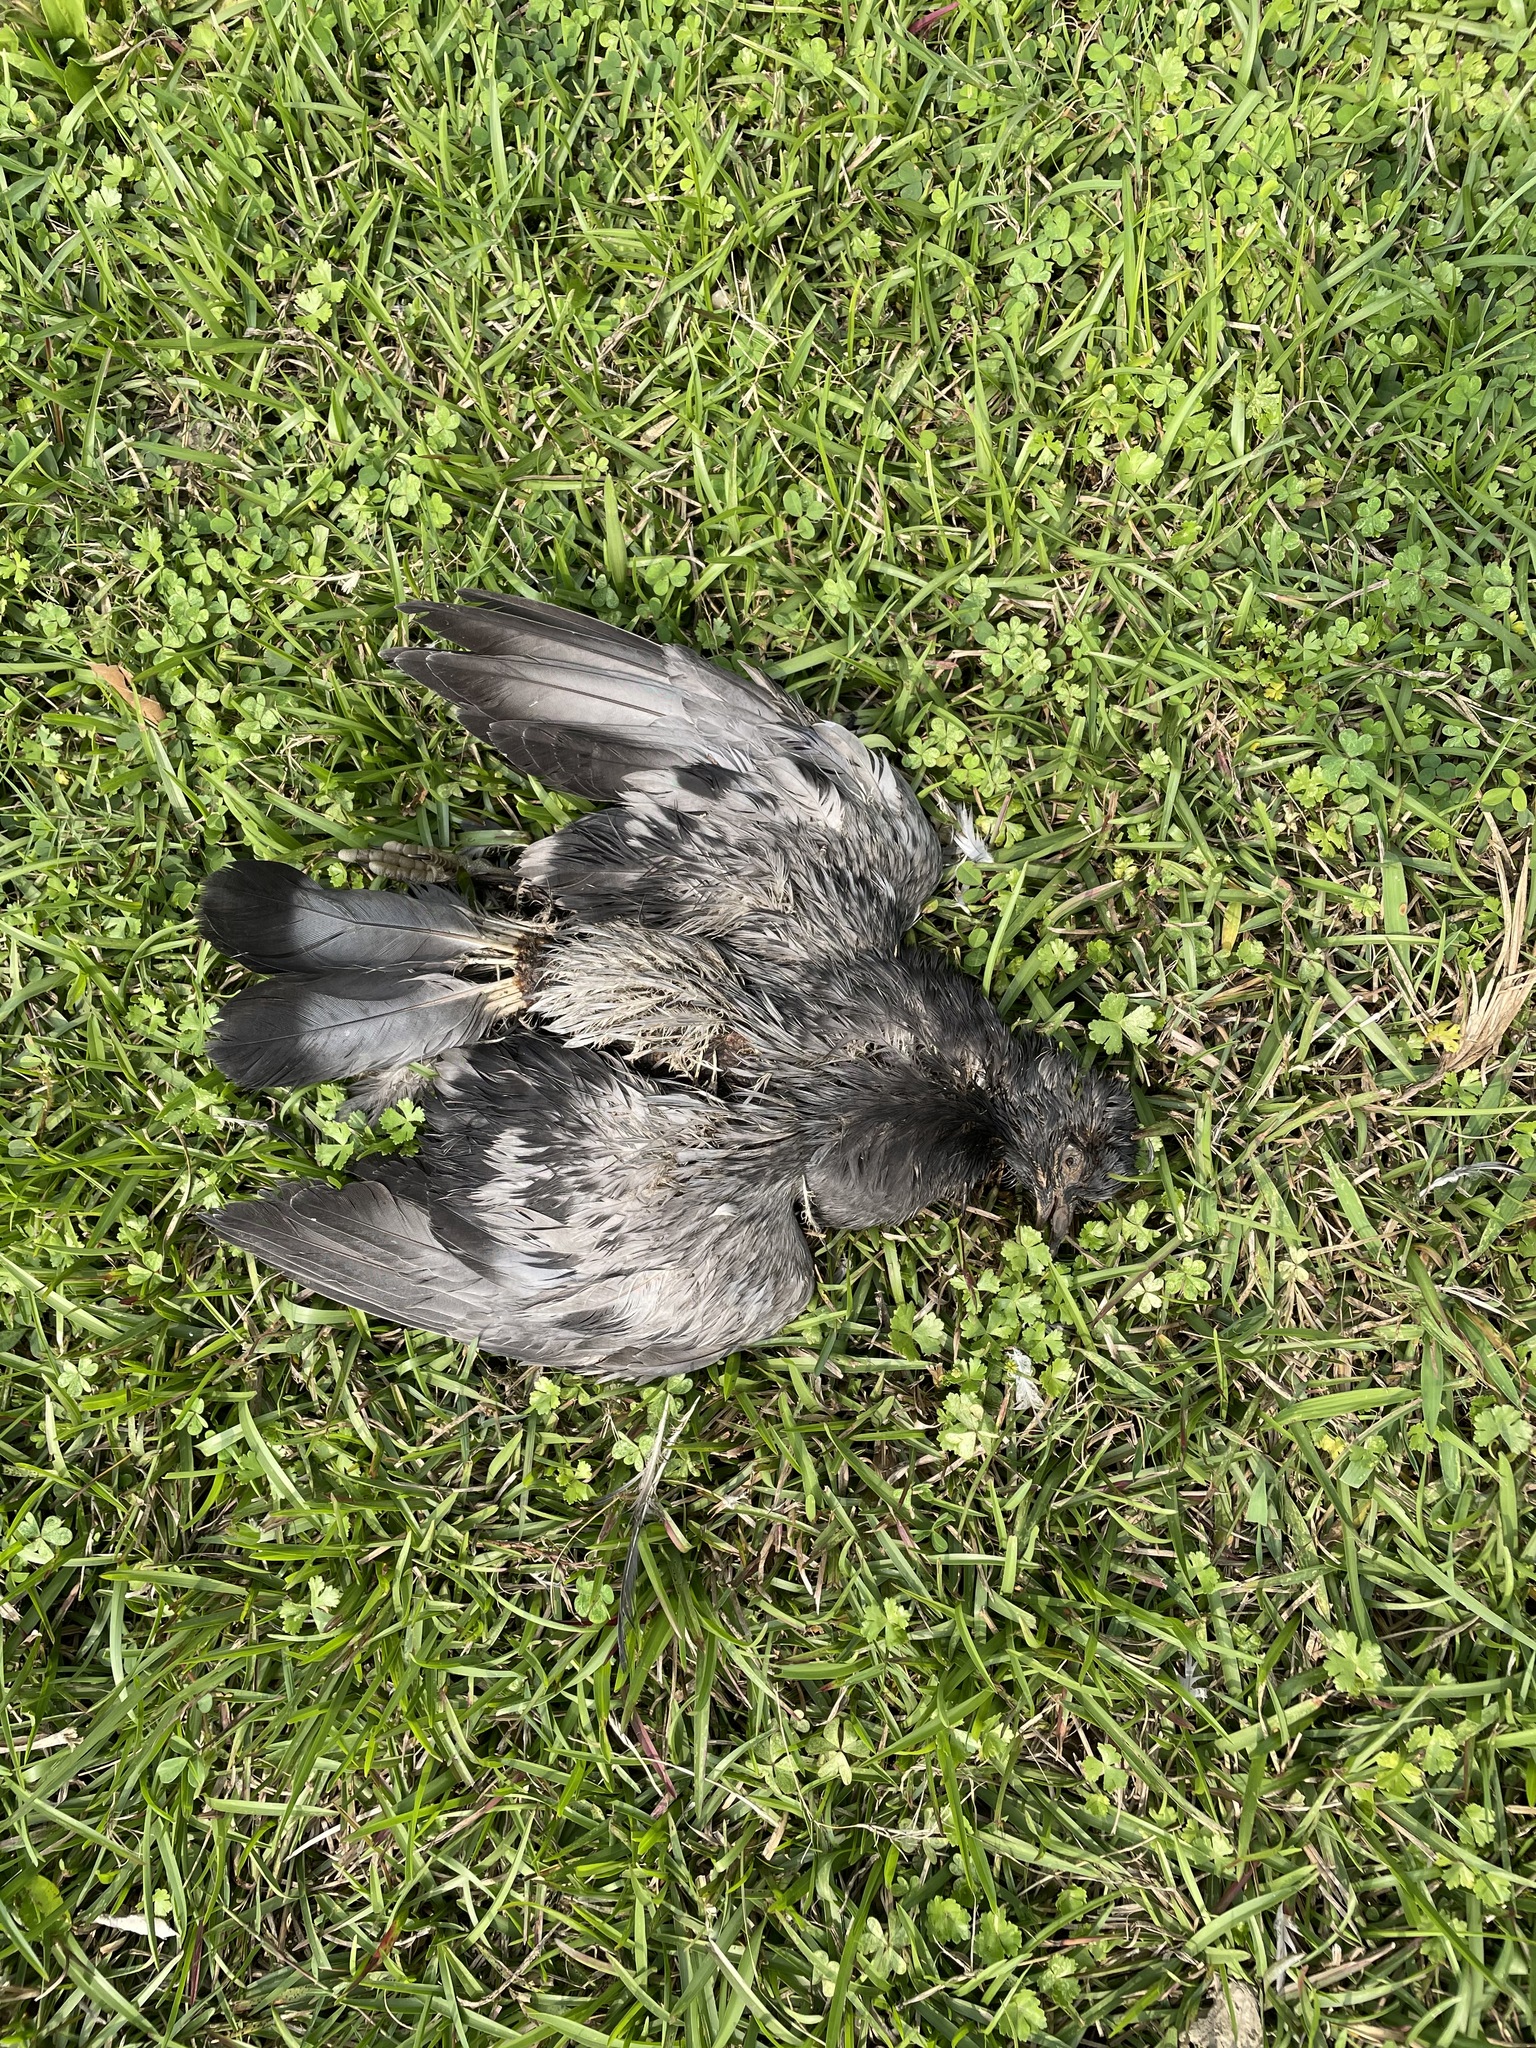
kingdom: Animalia
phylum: Chordata
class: Aves
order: Columbiformes
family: Columbidae
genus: Columba
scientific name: Columba livia
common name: Rock pigeon
